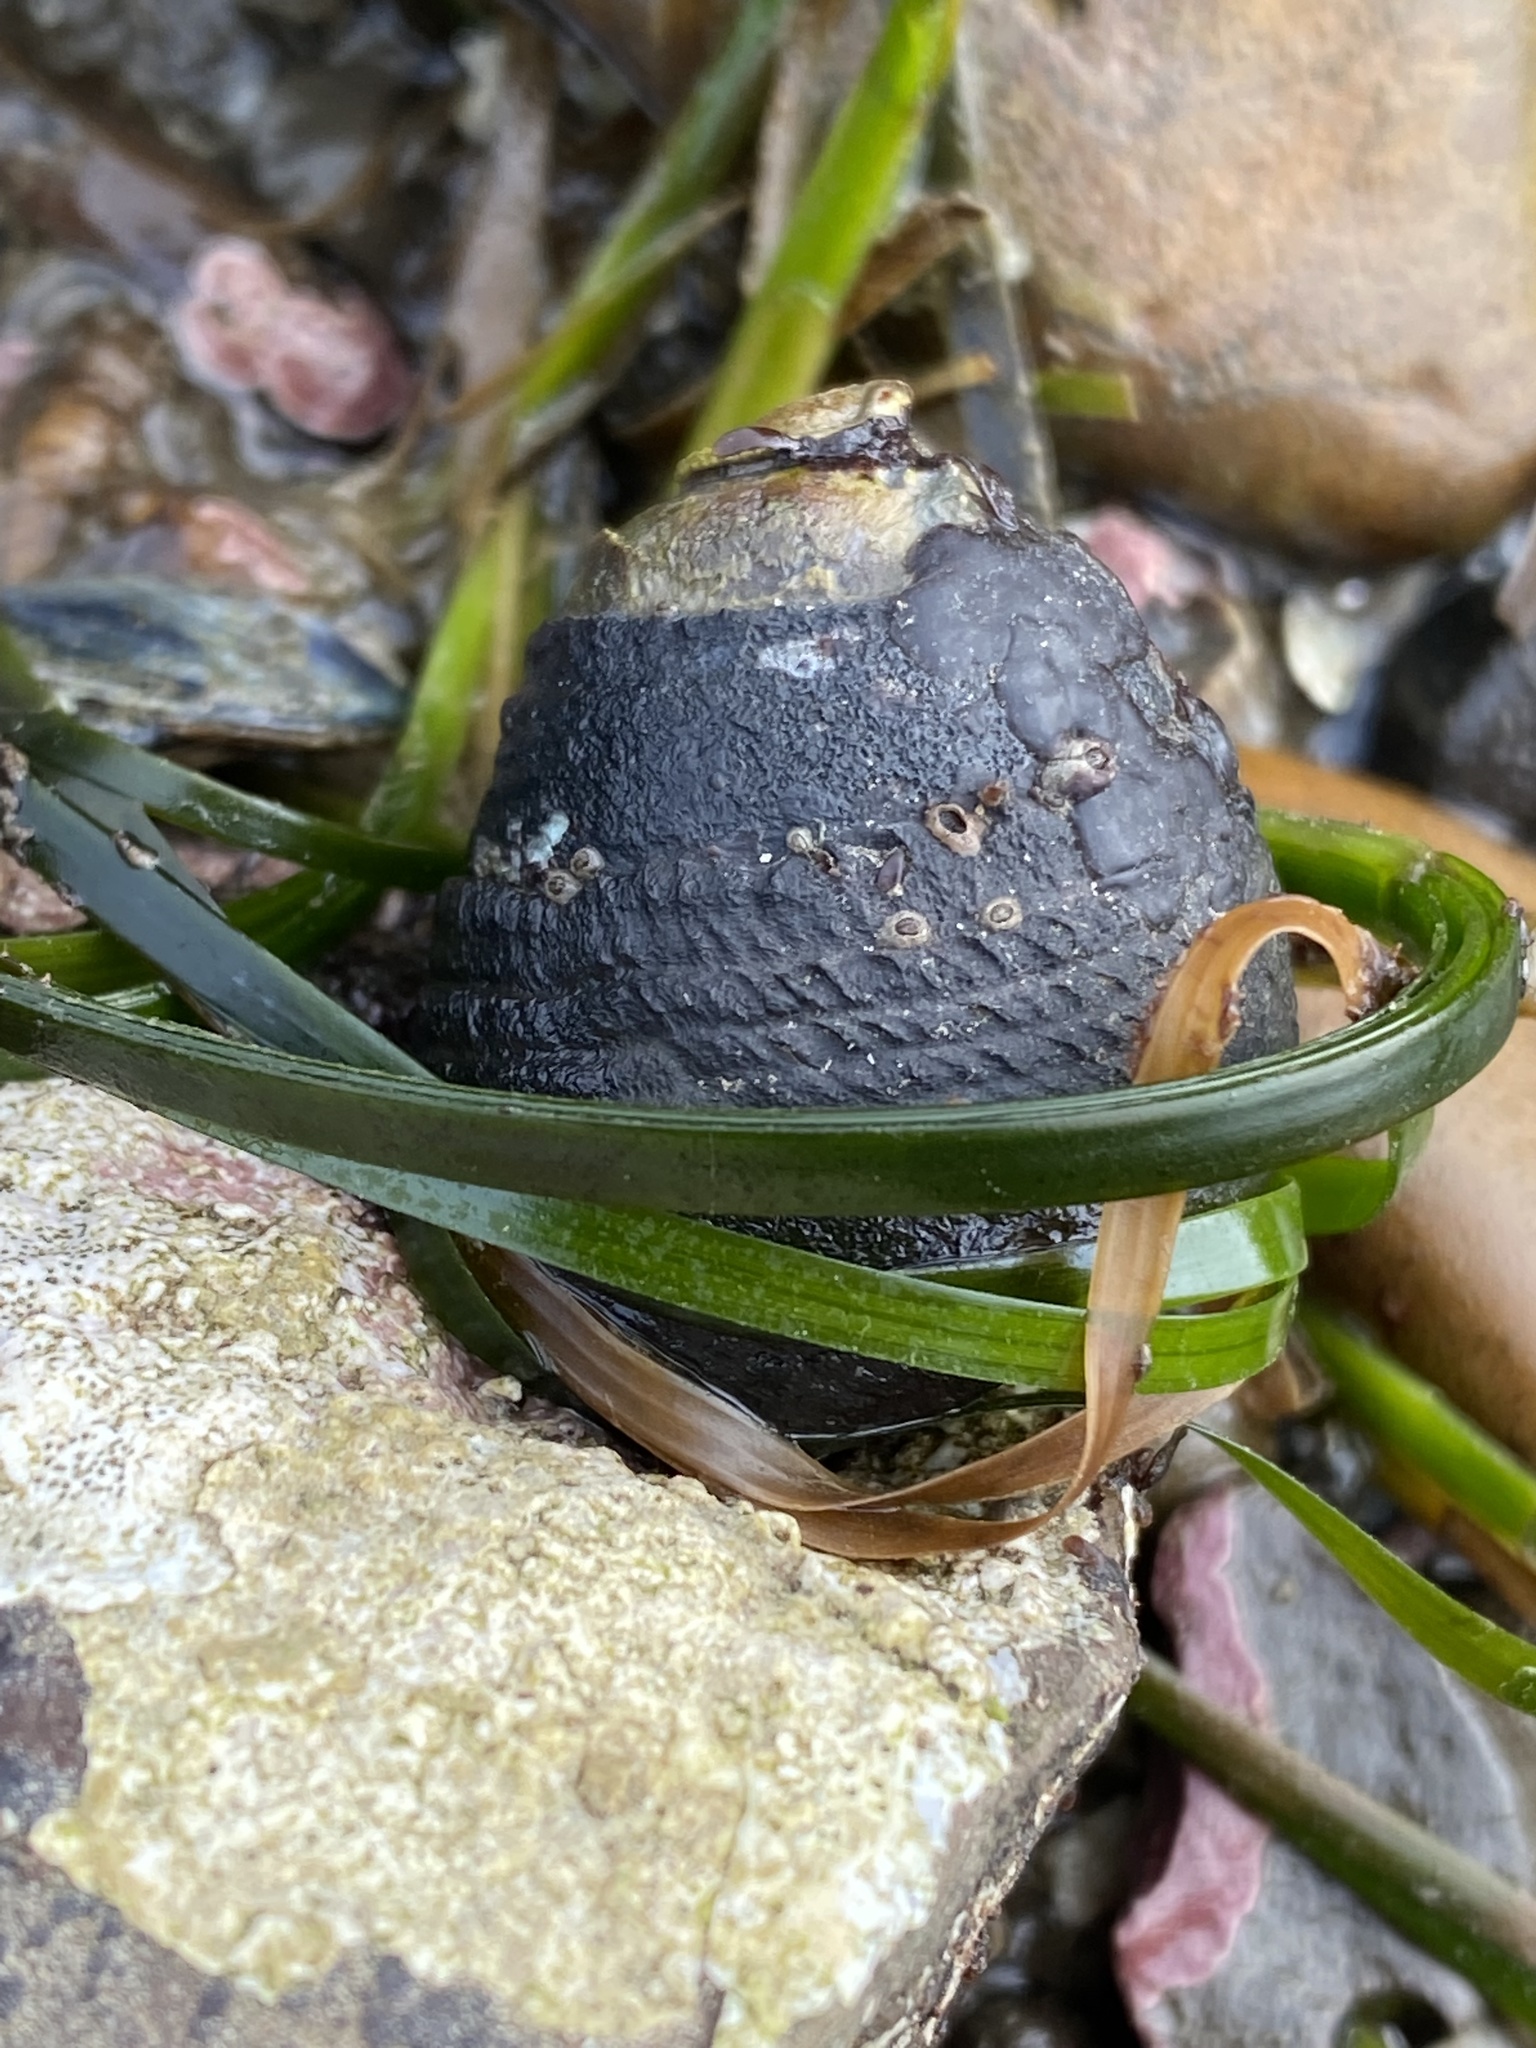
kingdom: Animalia
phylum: Mollusca
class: Gastropoda
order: Trochida
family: Tegulidae
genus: Tegula
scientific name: Tegula funebralis
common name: Black tegula
